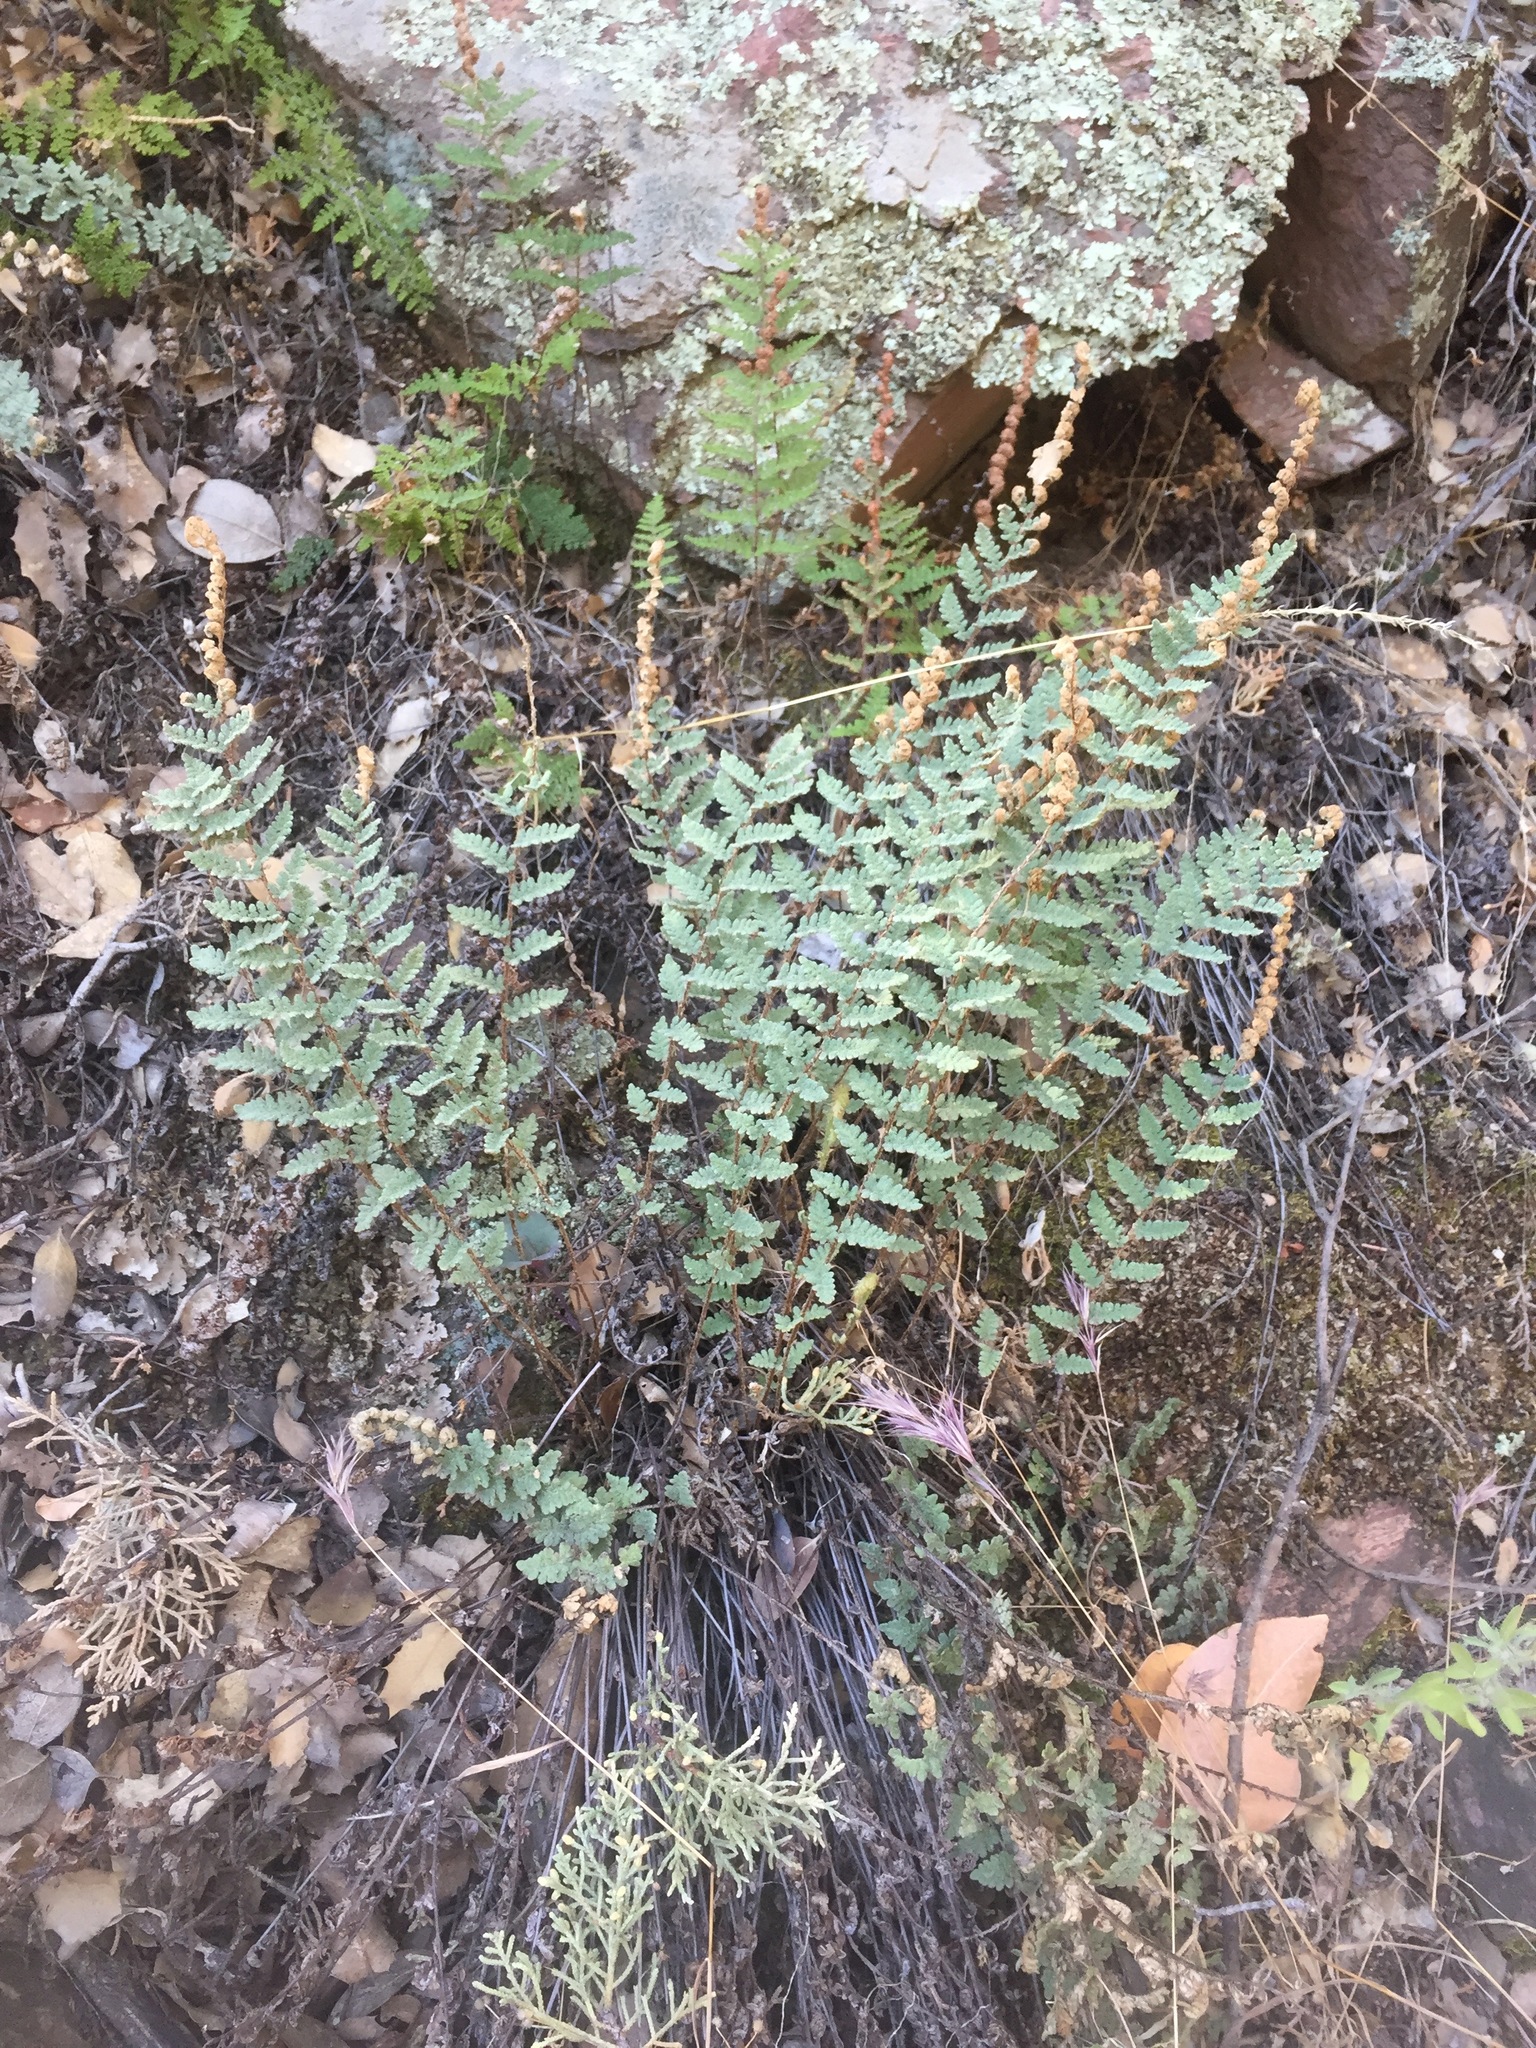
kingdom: Plantae
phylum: Tracheophyta
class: Polypodiopsida
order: Polypodiales
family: Pteridaceae
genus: Myriopteris
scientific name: Myriopteris rufa
